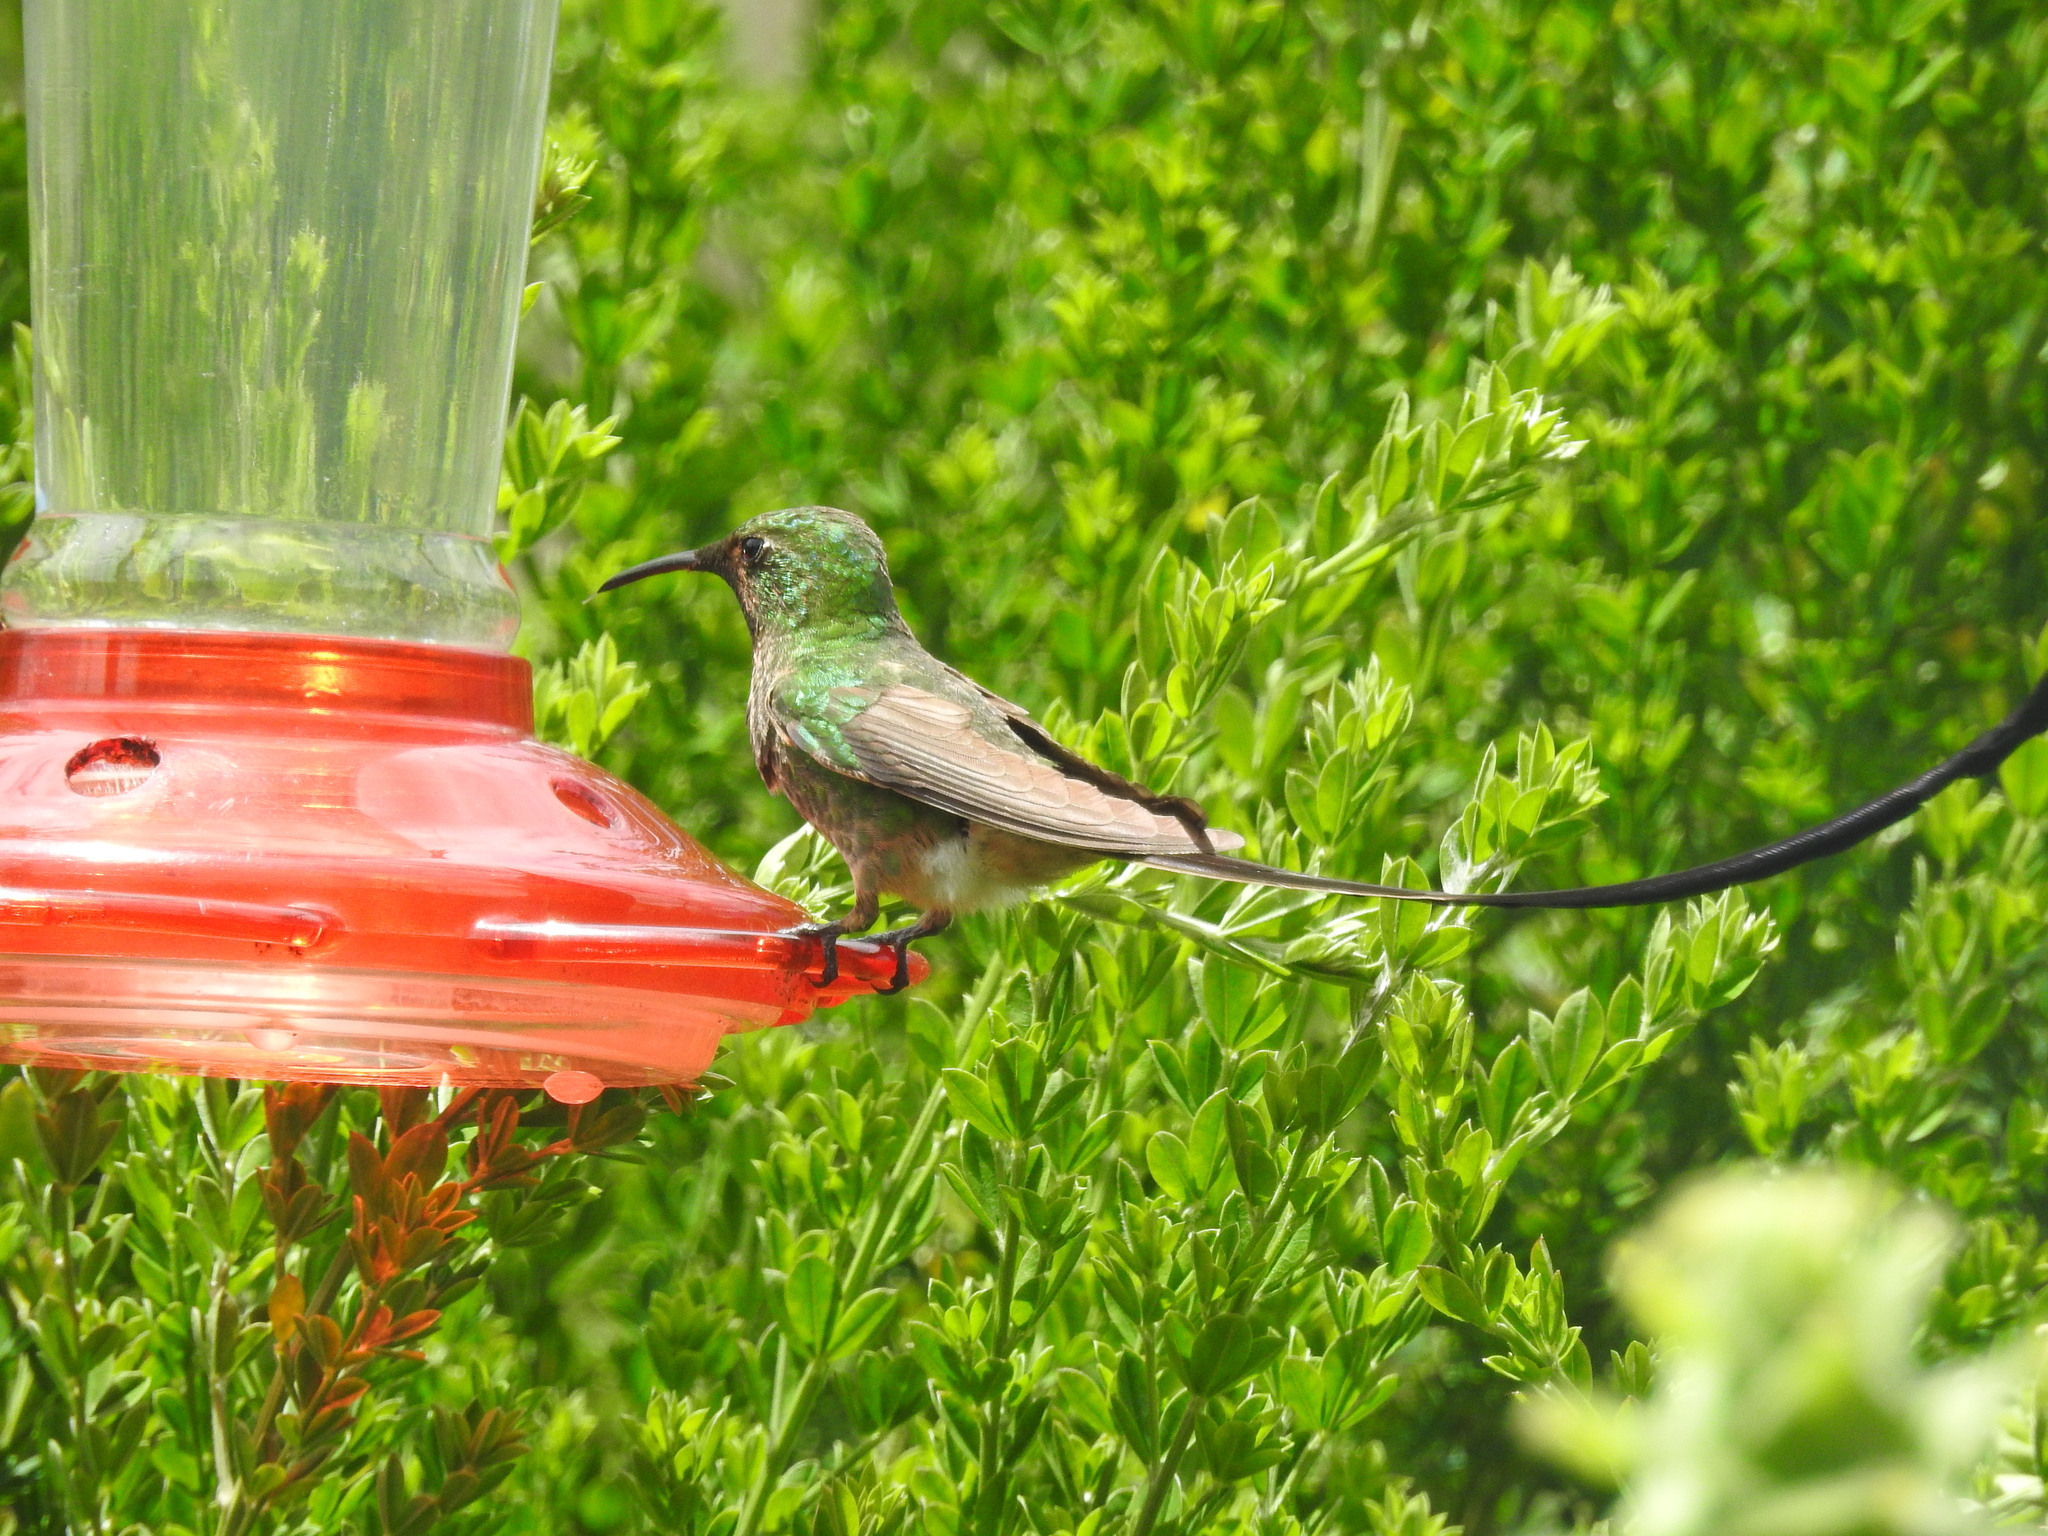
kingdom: Animalia
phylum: Chordata
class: Aves
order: Apodiformes
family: Trochilidae
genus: Lesbia
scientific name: Lesbia victoriae
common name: Black-tailed trainbearer
